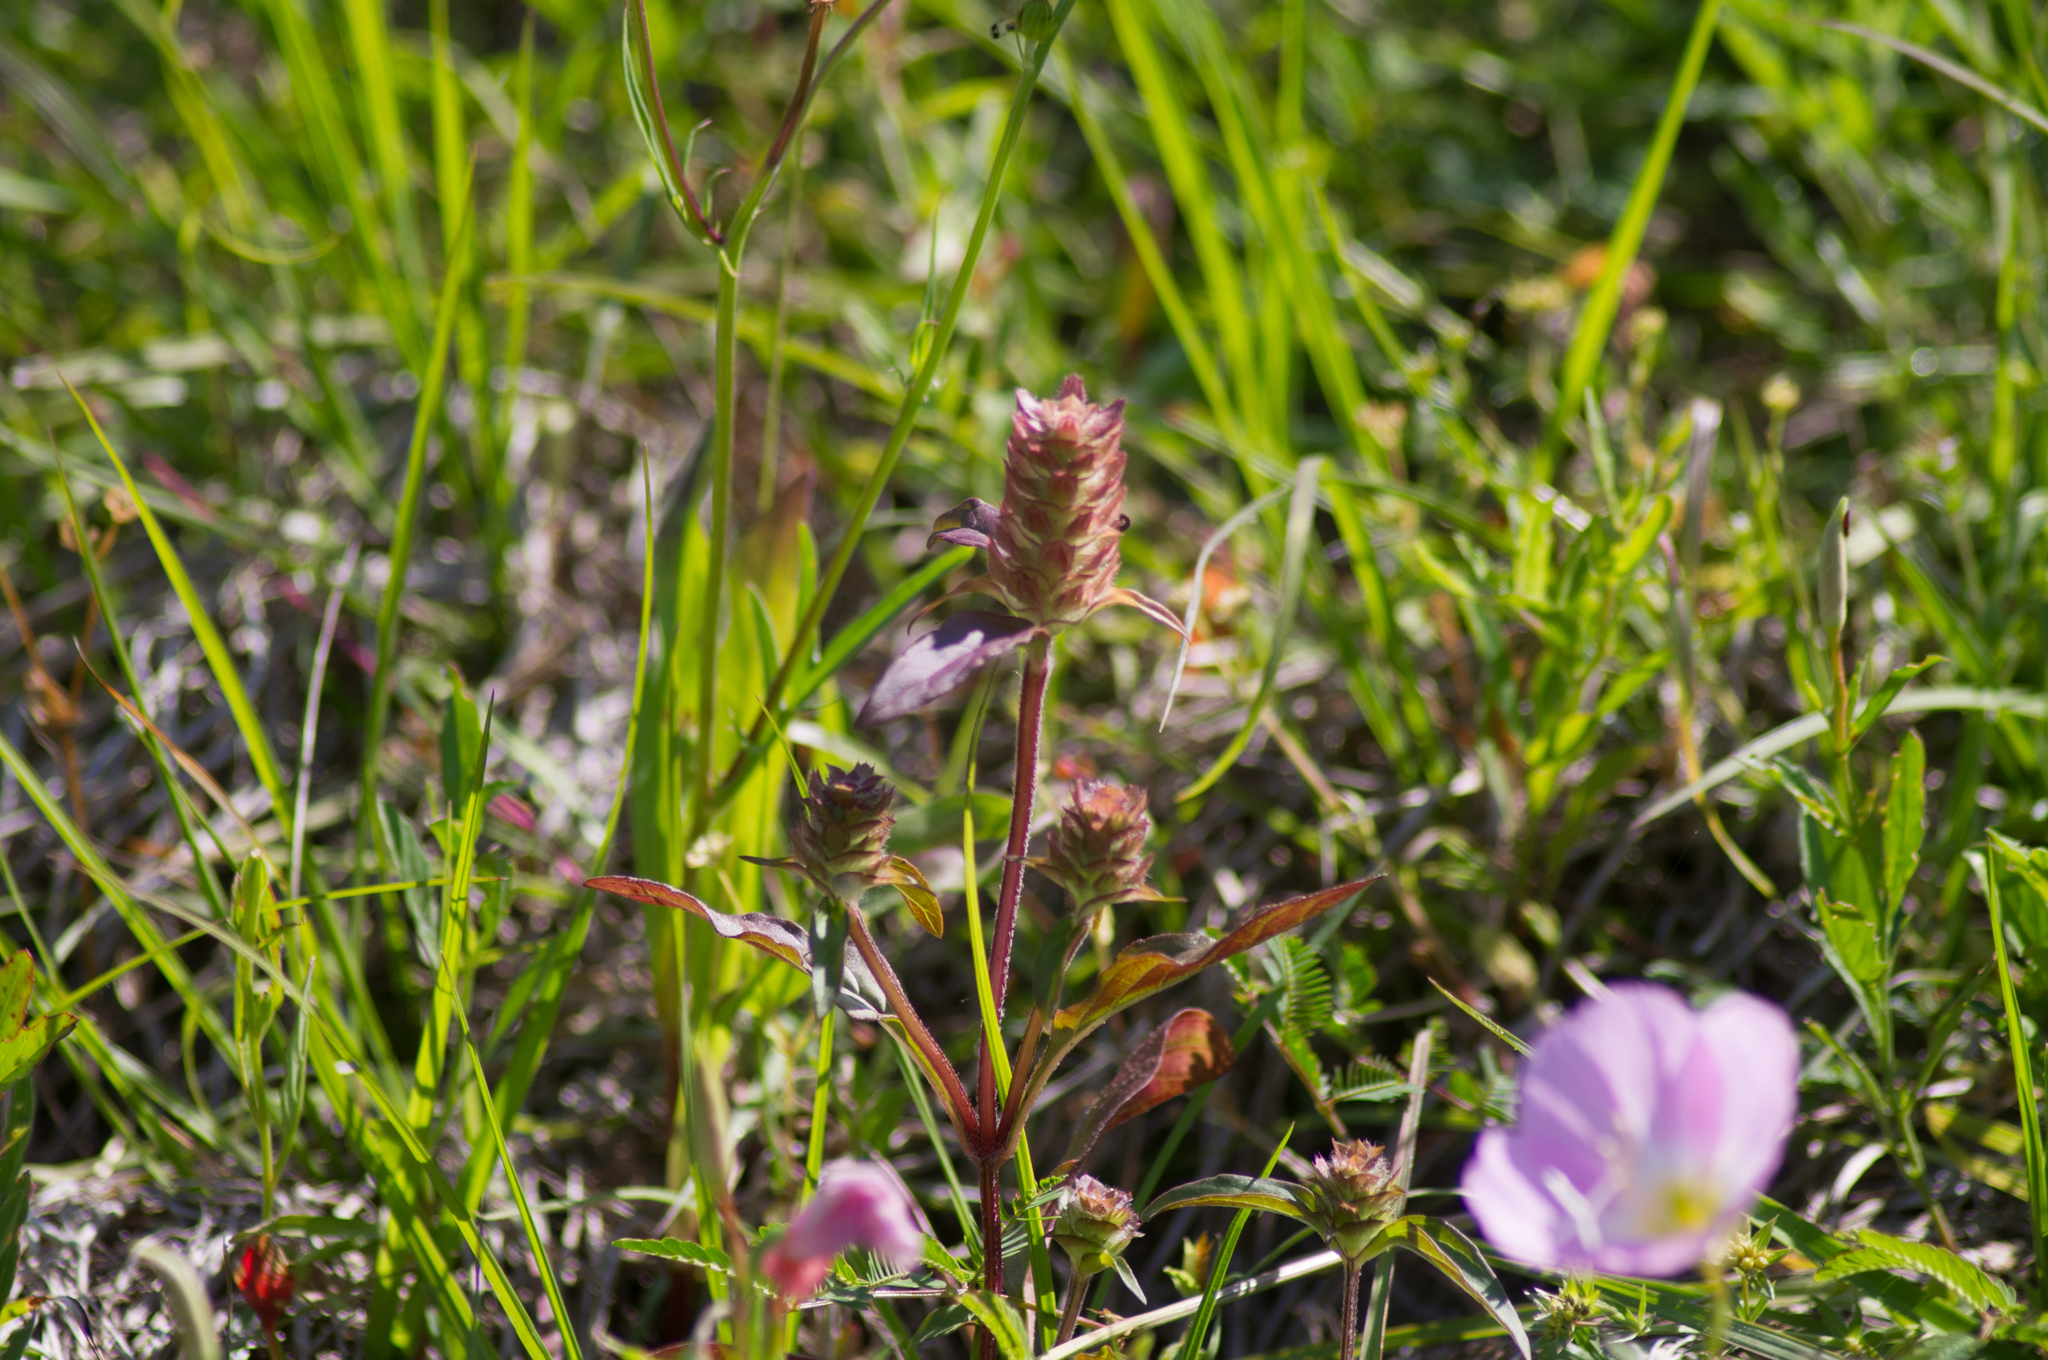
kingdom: Plantae
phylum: Tracheophyta
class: Magnoliopsida
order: Lamiales
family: Lamiaceae
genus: Prunella
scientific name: Prunella vulgaris
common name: Heal-all
